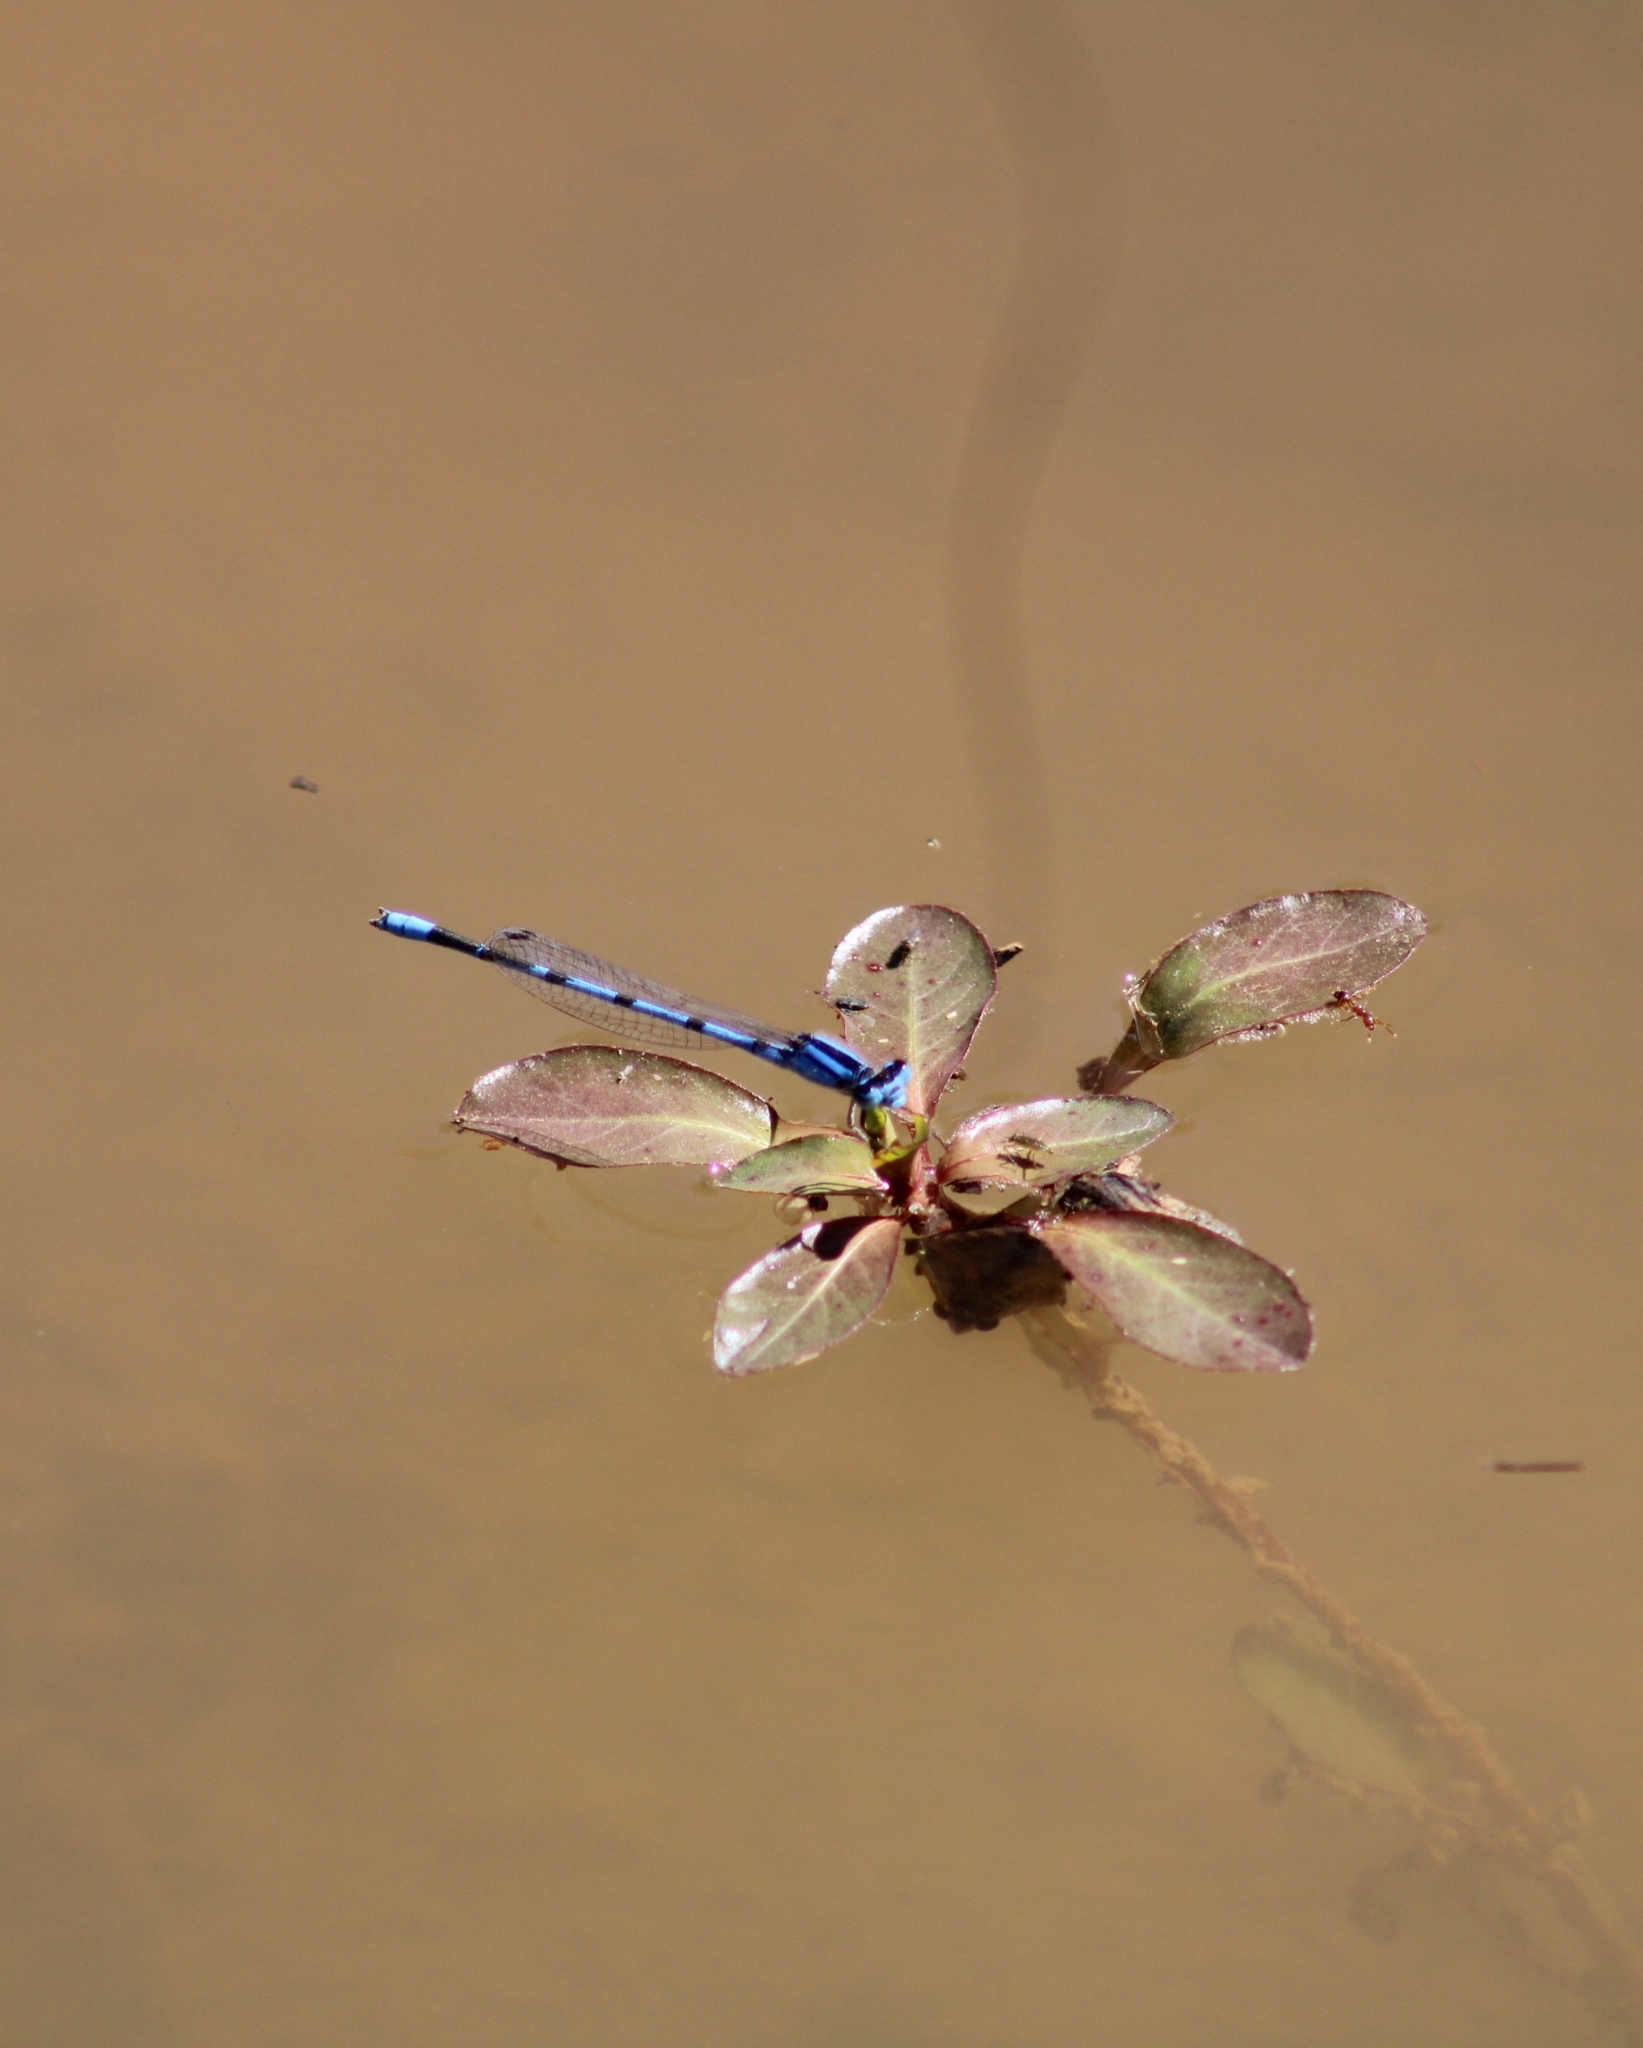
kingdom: Animalia
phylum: Arthropoda
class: Insecta
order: Odonata
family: Coenagrionidae
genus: Enallagma
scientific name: Enallagma civile
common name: Damselfly
